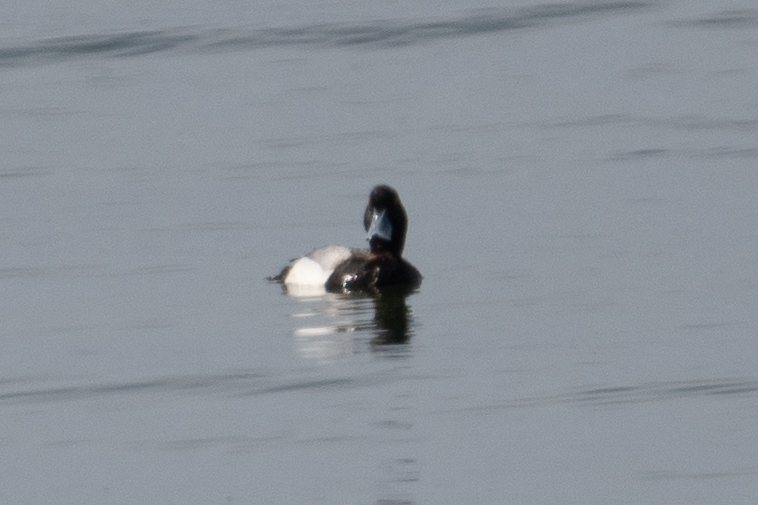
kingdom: Animalia
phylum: Chordata
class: Aves
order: Anseriformes
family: Anatidae
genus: Aythya
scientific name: Aythya marila
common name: Greater scaup
